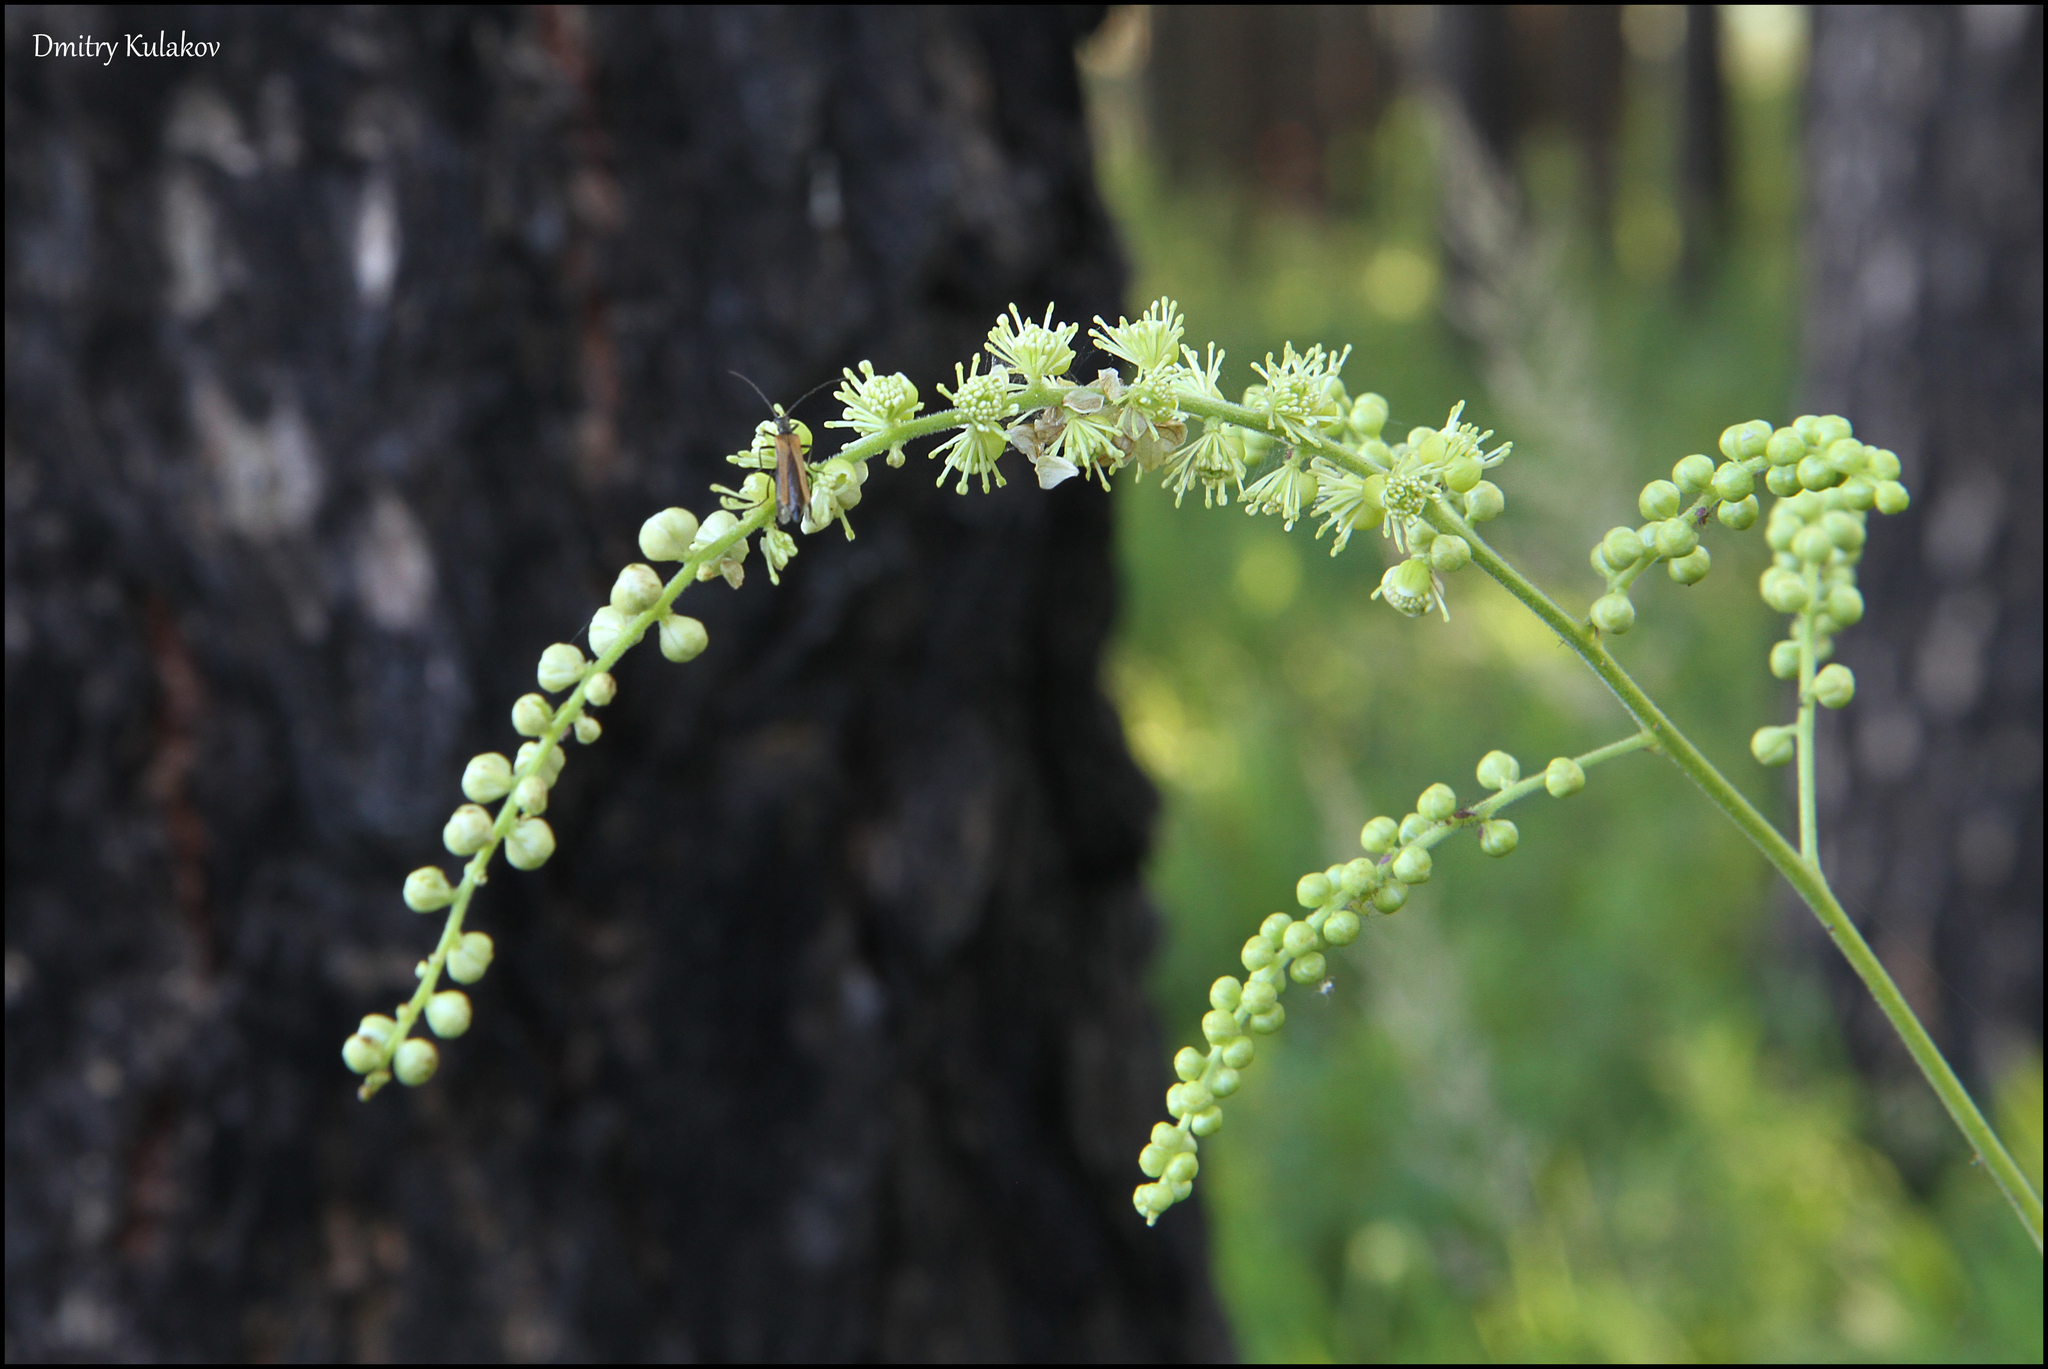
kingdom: Plantae
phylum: Tracheophyta
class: Magnoliopsida
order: Ranunculales
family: Ranunculaceae
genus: Actaea
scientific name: Actaea cimicifuga
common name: Chinese cimicifuga
